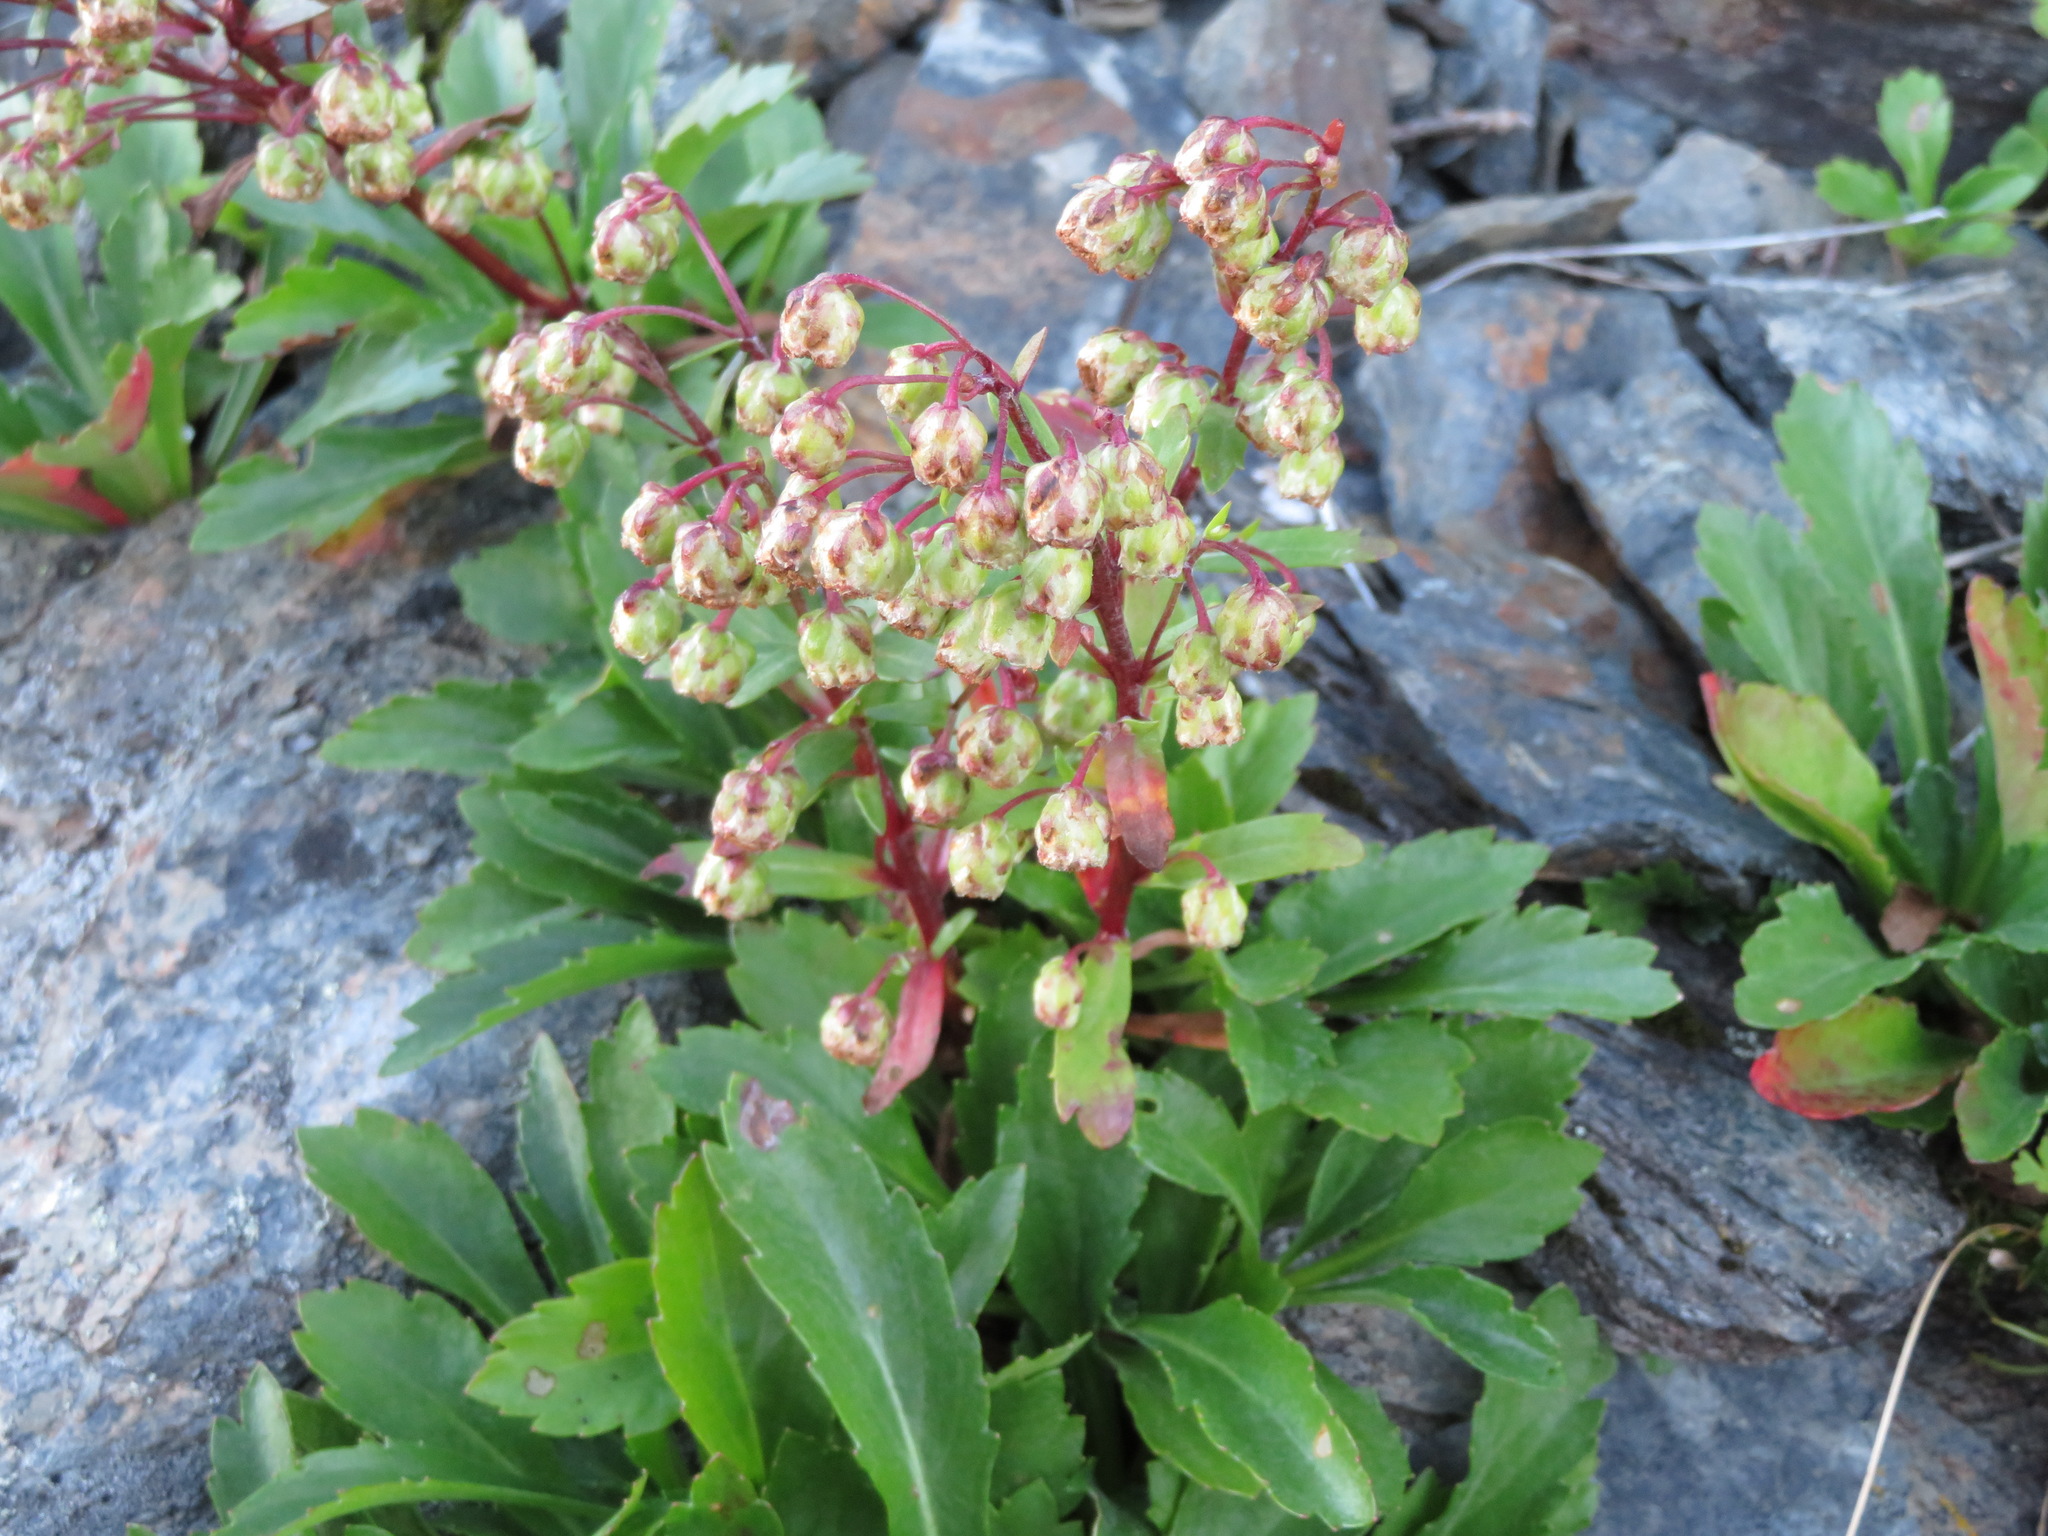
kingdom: Plantae
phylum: Tracheophyta
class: Magnoliopsida
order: Asterales
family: Asteraceae
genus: Artemisia
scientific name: Artemisia pedunculosa
